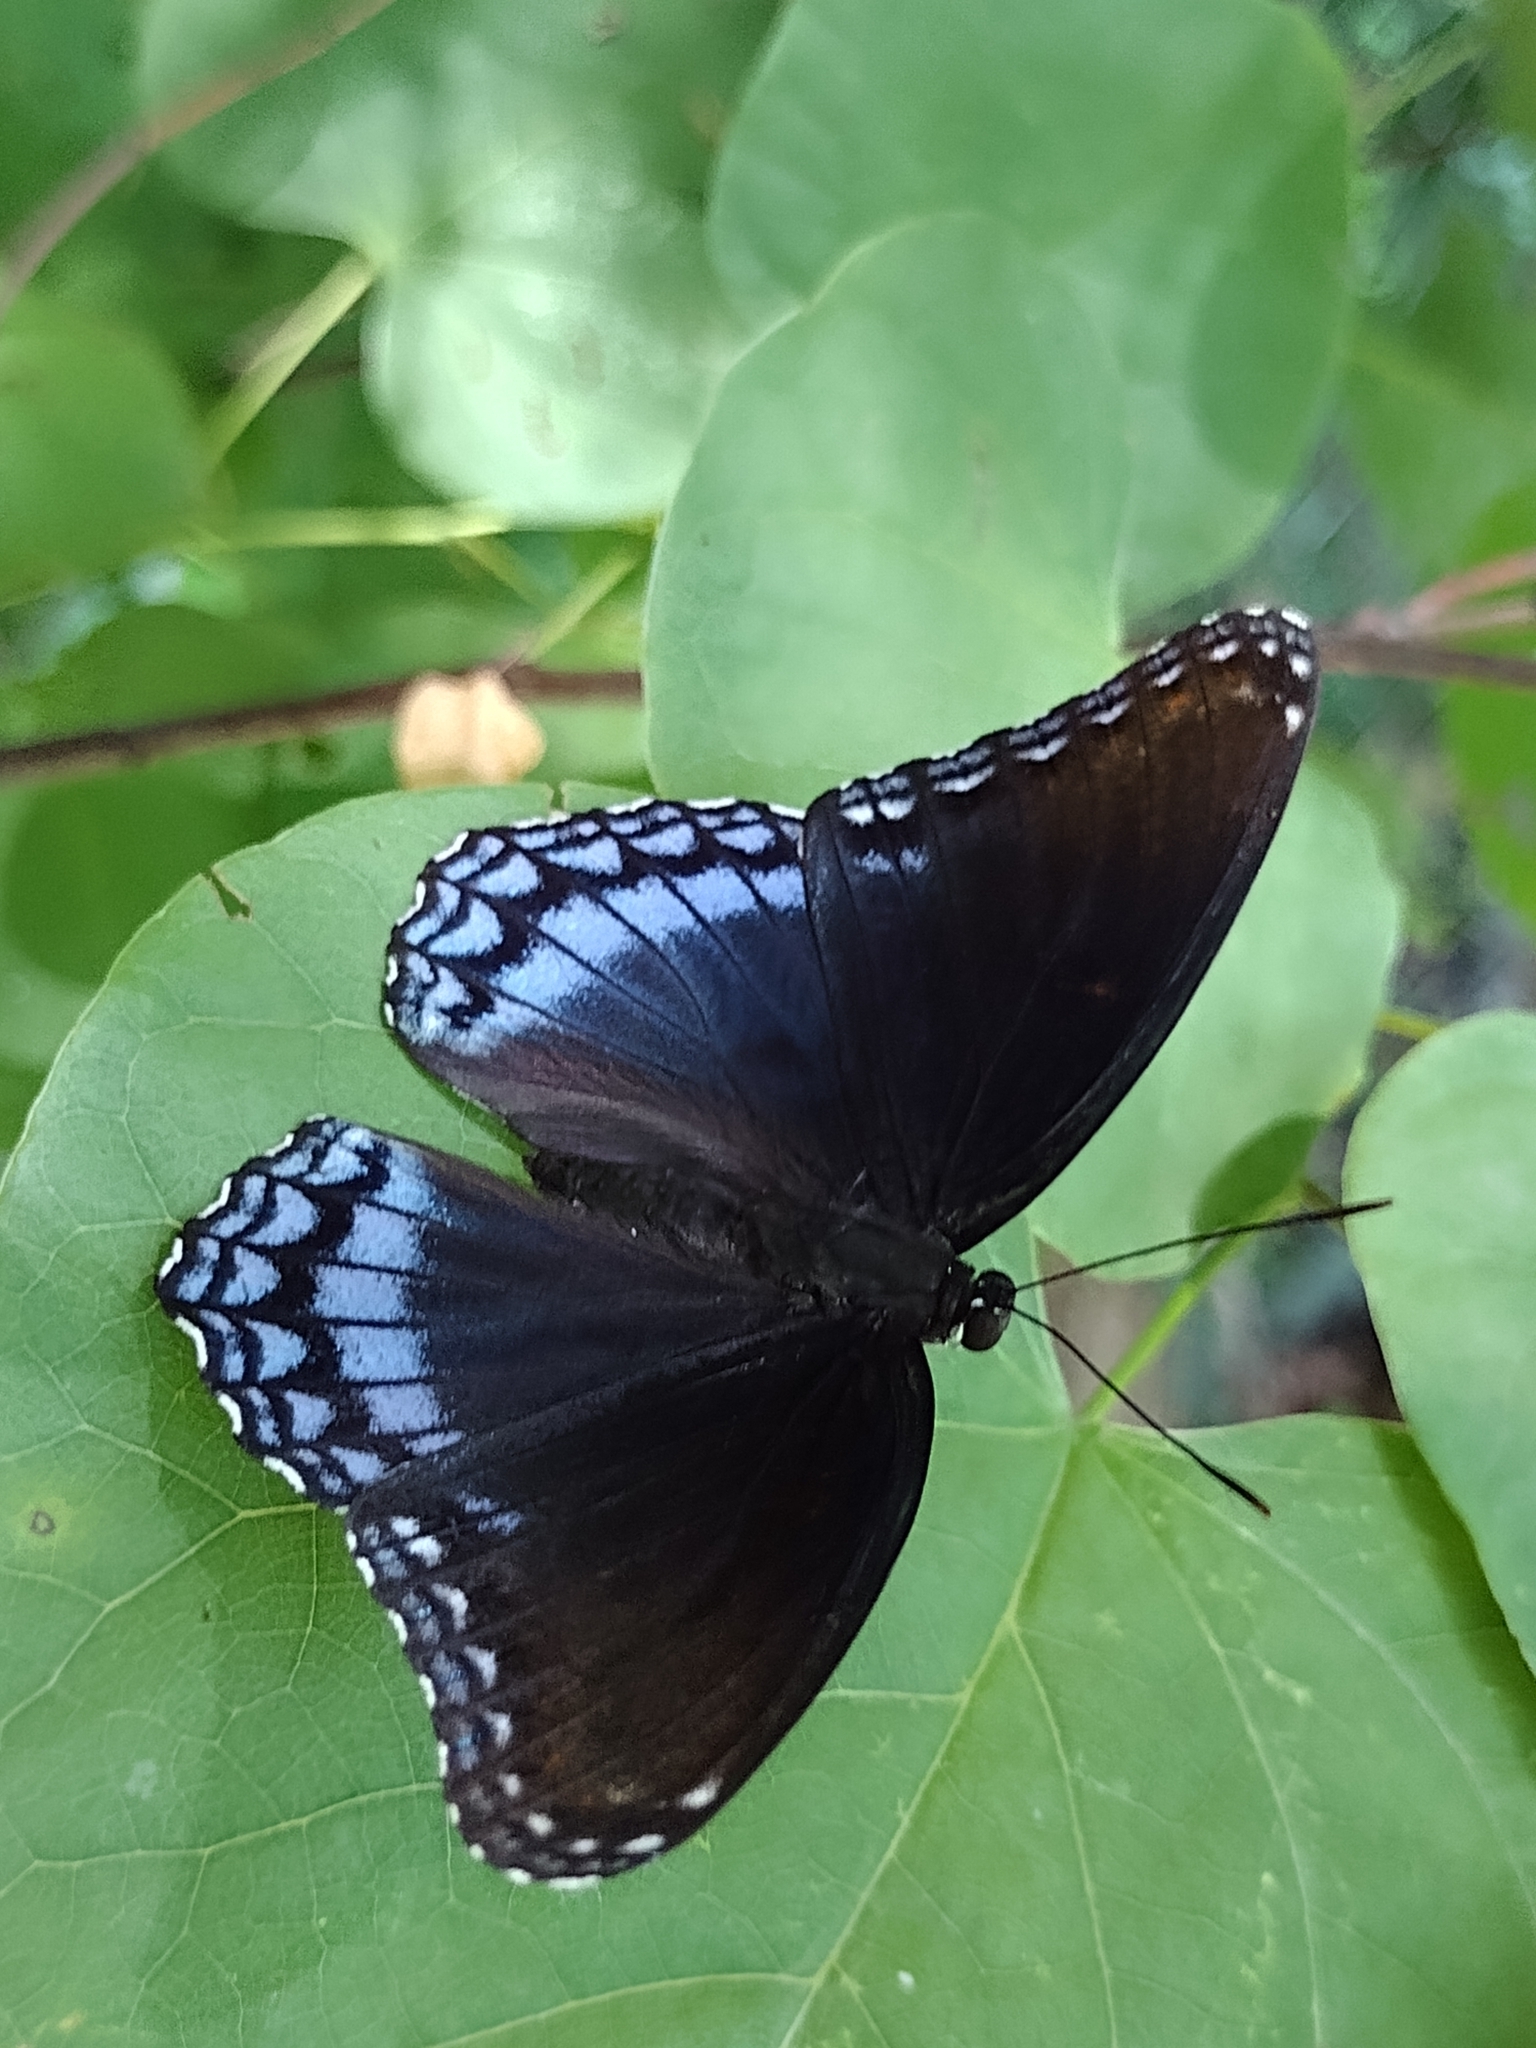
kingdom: Animalia
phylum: Arthropoda
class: Insecta
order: Lepidoptera
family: Nymphalidae
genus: Limenitis
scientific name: Limenitis arthemis
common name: Red-spotted admiral
